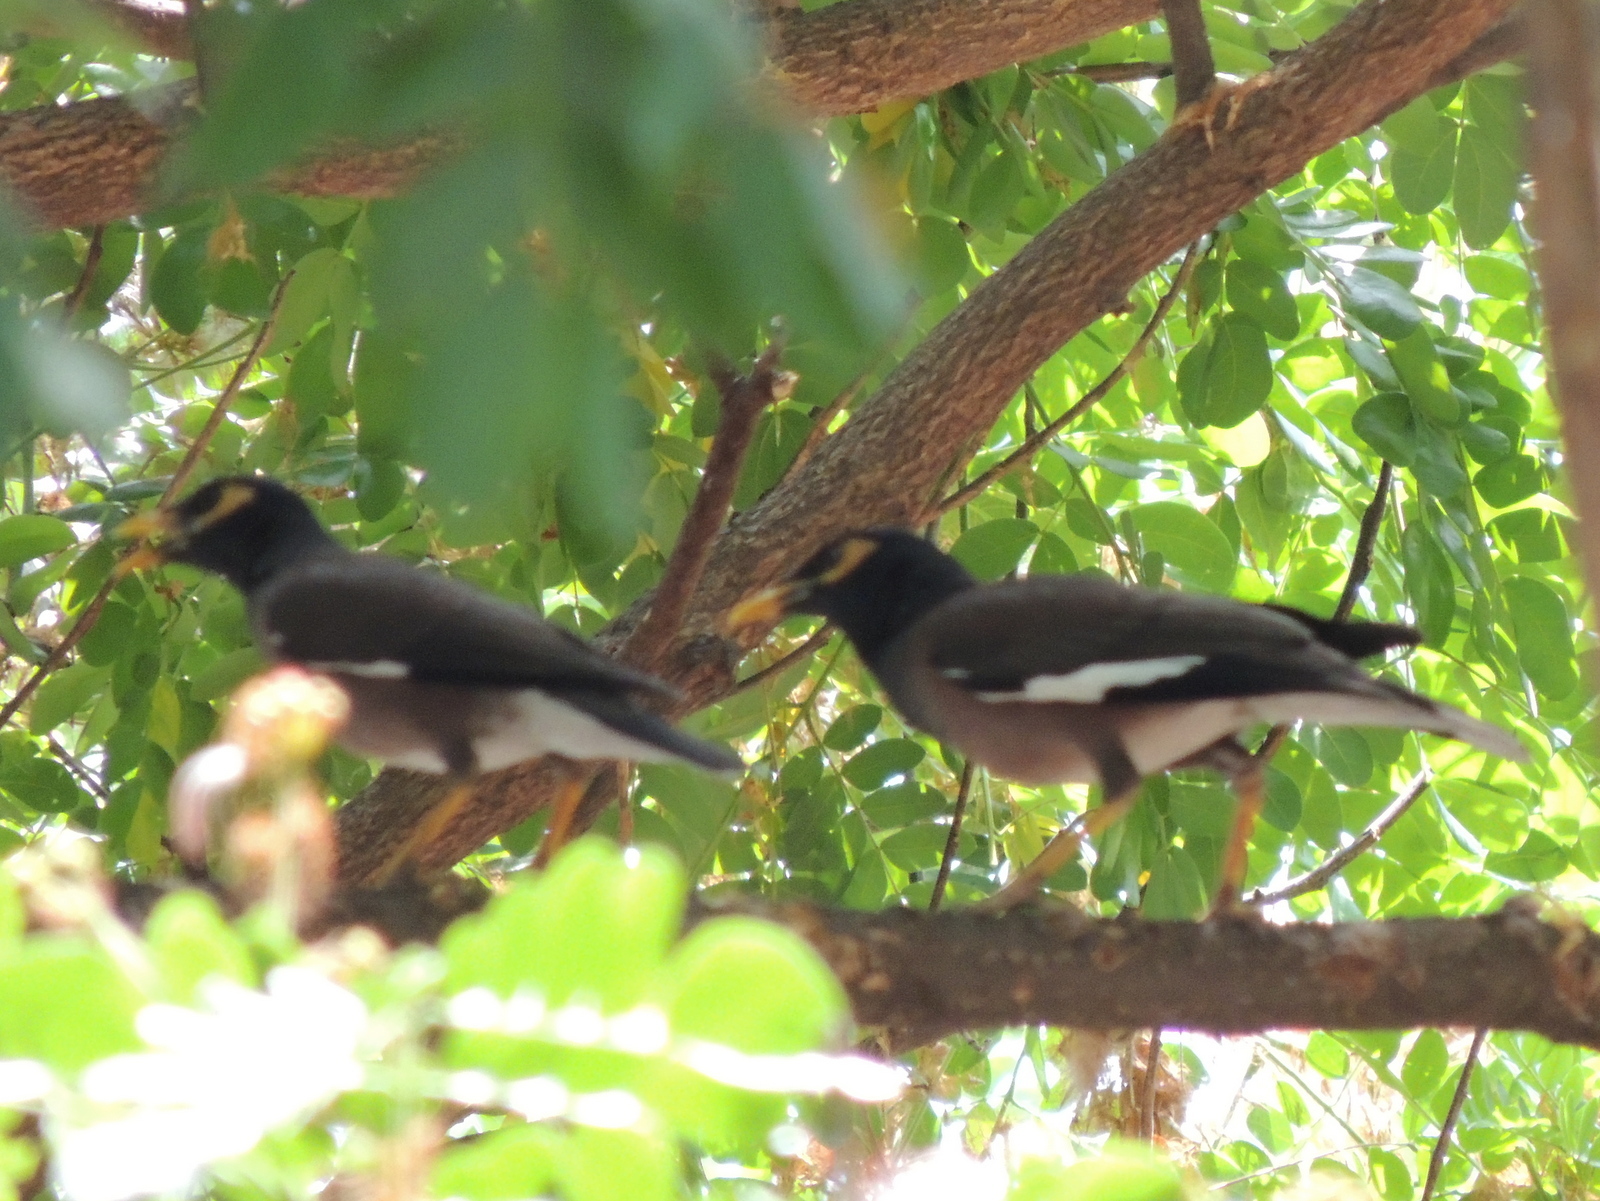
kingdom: Animalia
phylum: Chordata
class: Aves
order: Passeriformes
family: Sturnidae
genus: Acridotheres
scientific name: Acridotheres tristis
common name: Common myna
